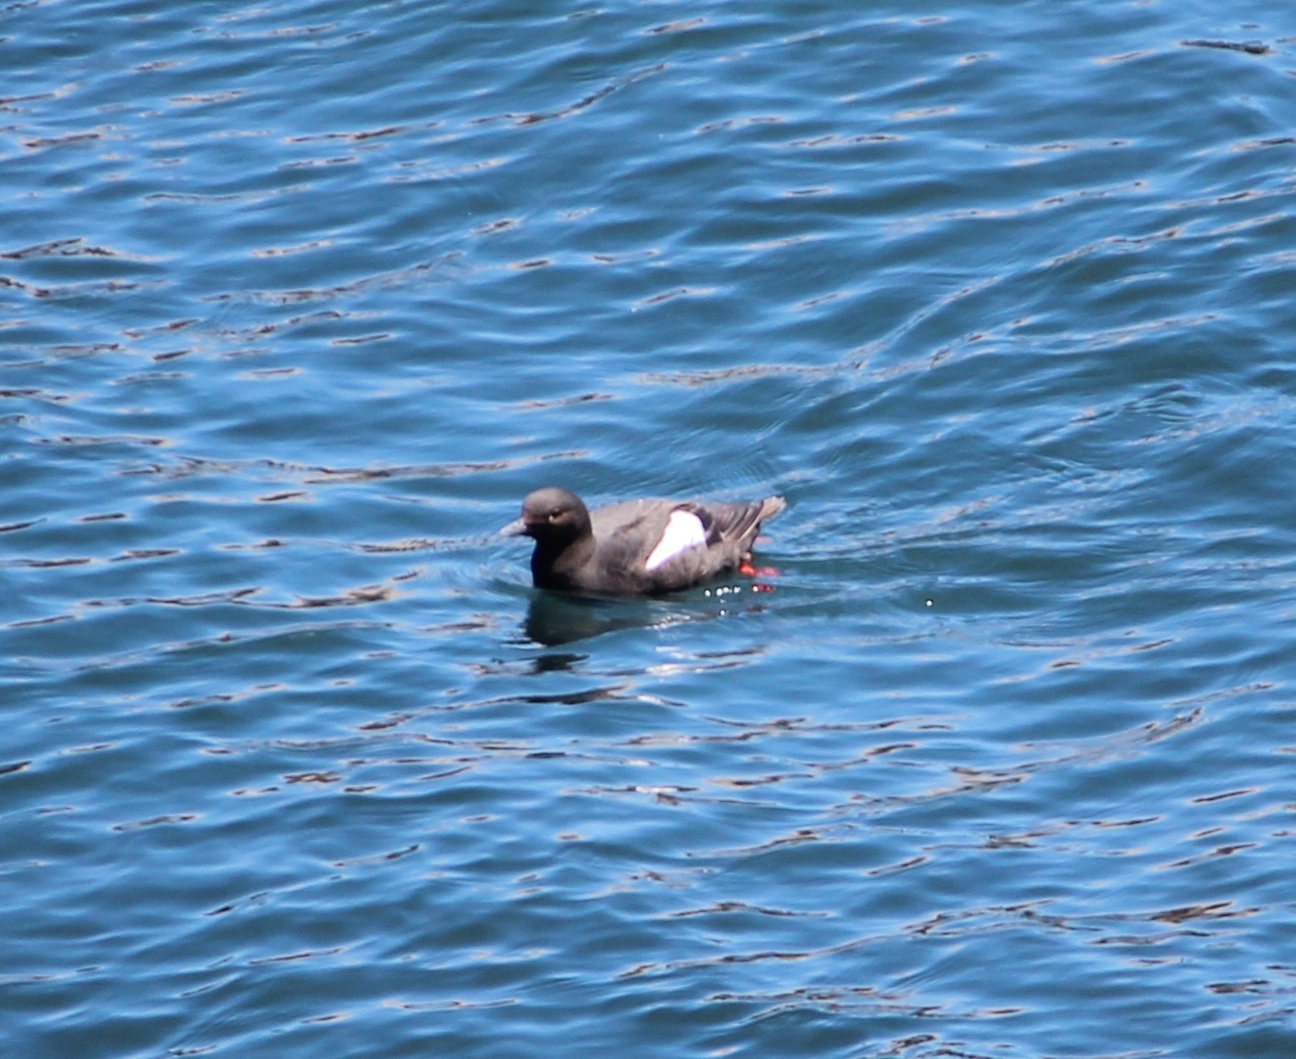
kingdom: Animalia
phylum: Chordata
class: Aves
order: Charadriiformes
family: Alcidae
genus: Cepphus
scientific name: Cepphus columba
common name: Pigeon guillemot
